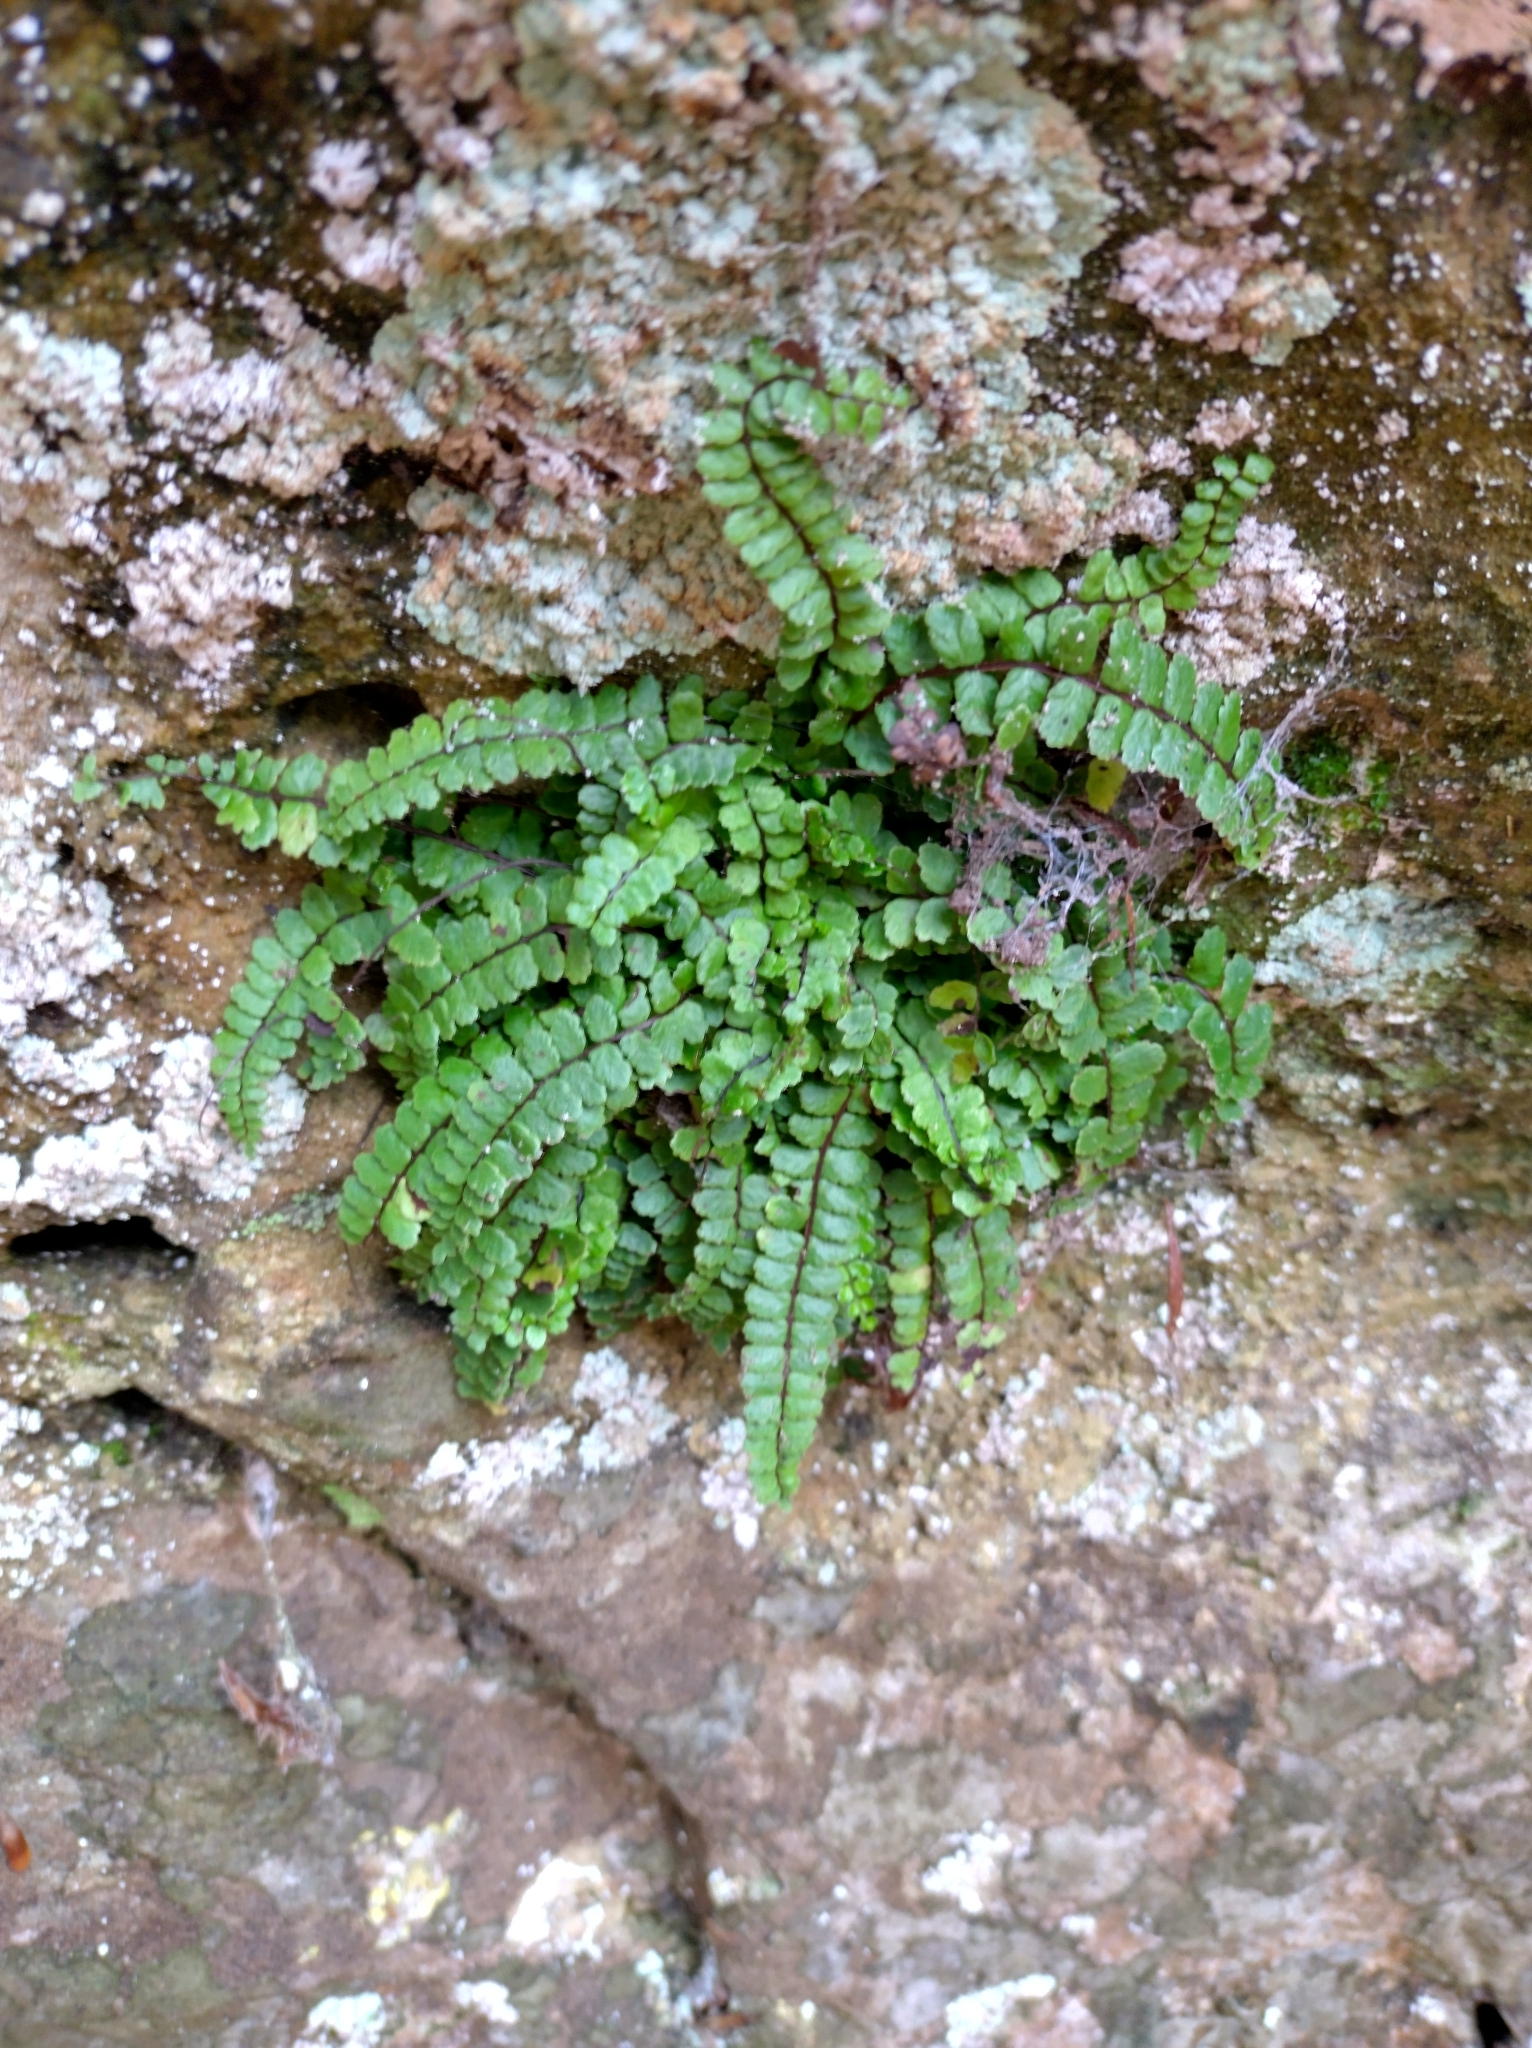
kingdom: Plantae
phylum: Tracheophyta
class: Polypodiopsida
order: Polypodiales
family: Aspleniaceae
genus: Asplenium
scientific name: Asplenium trichomanes
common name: Maidenhair spleenwort
